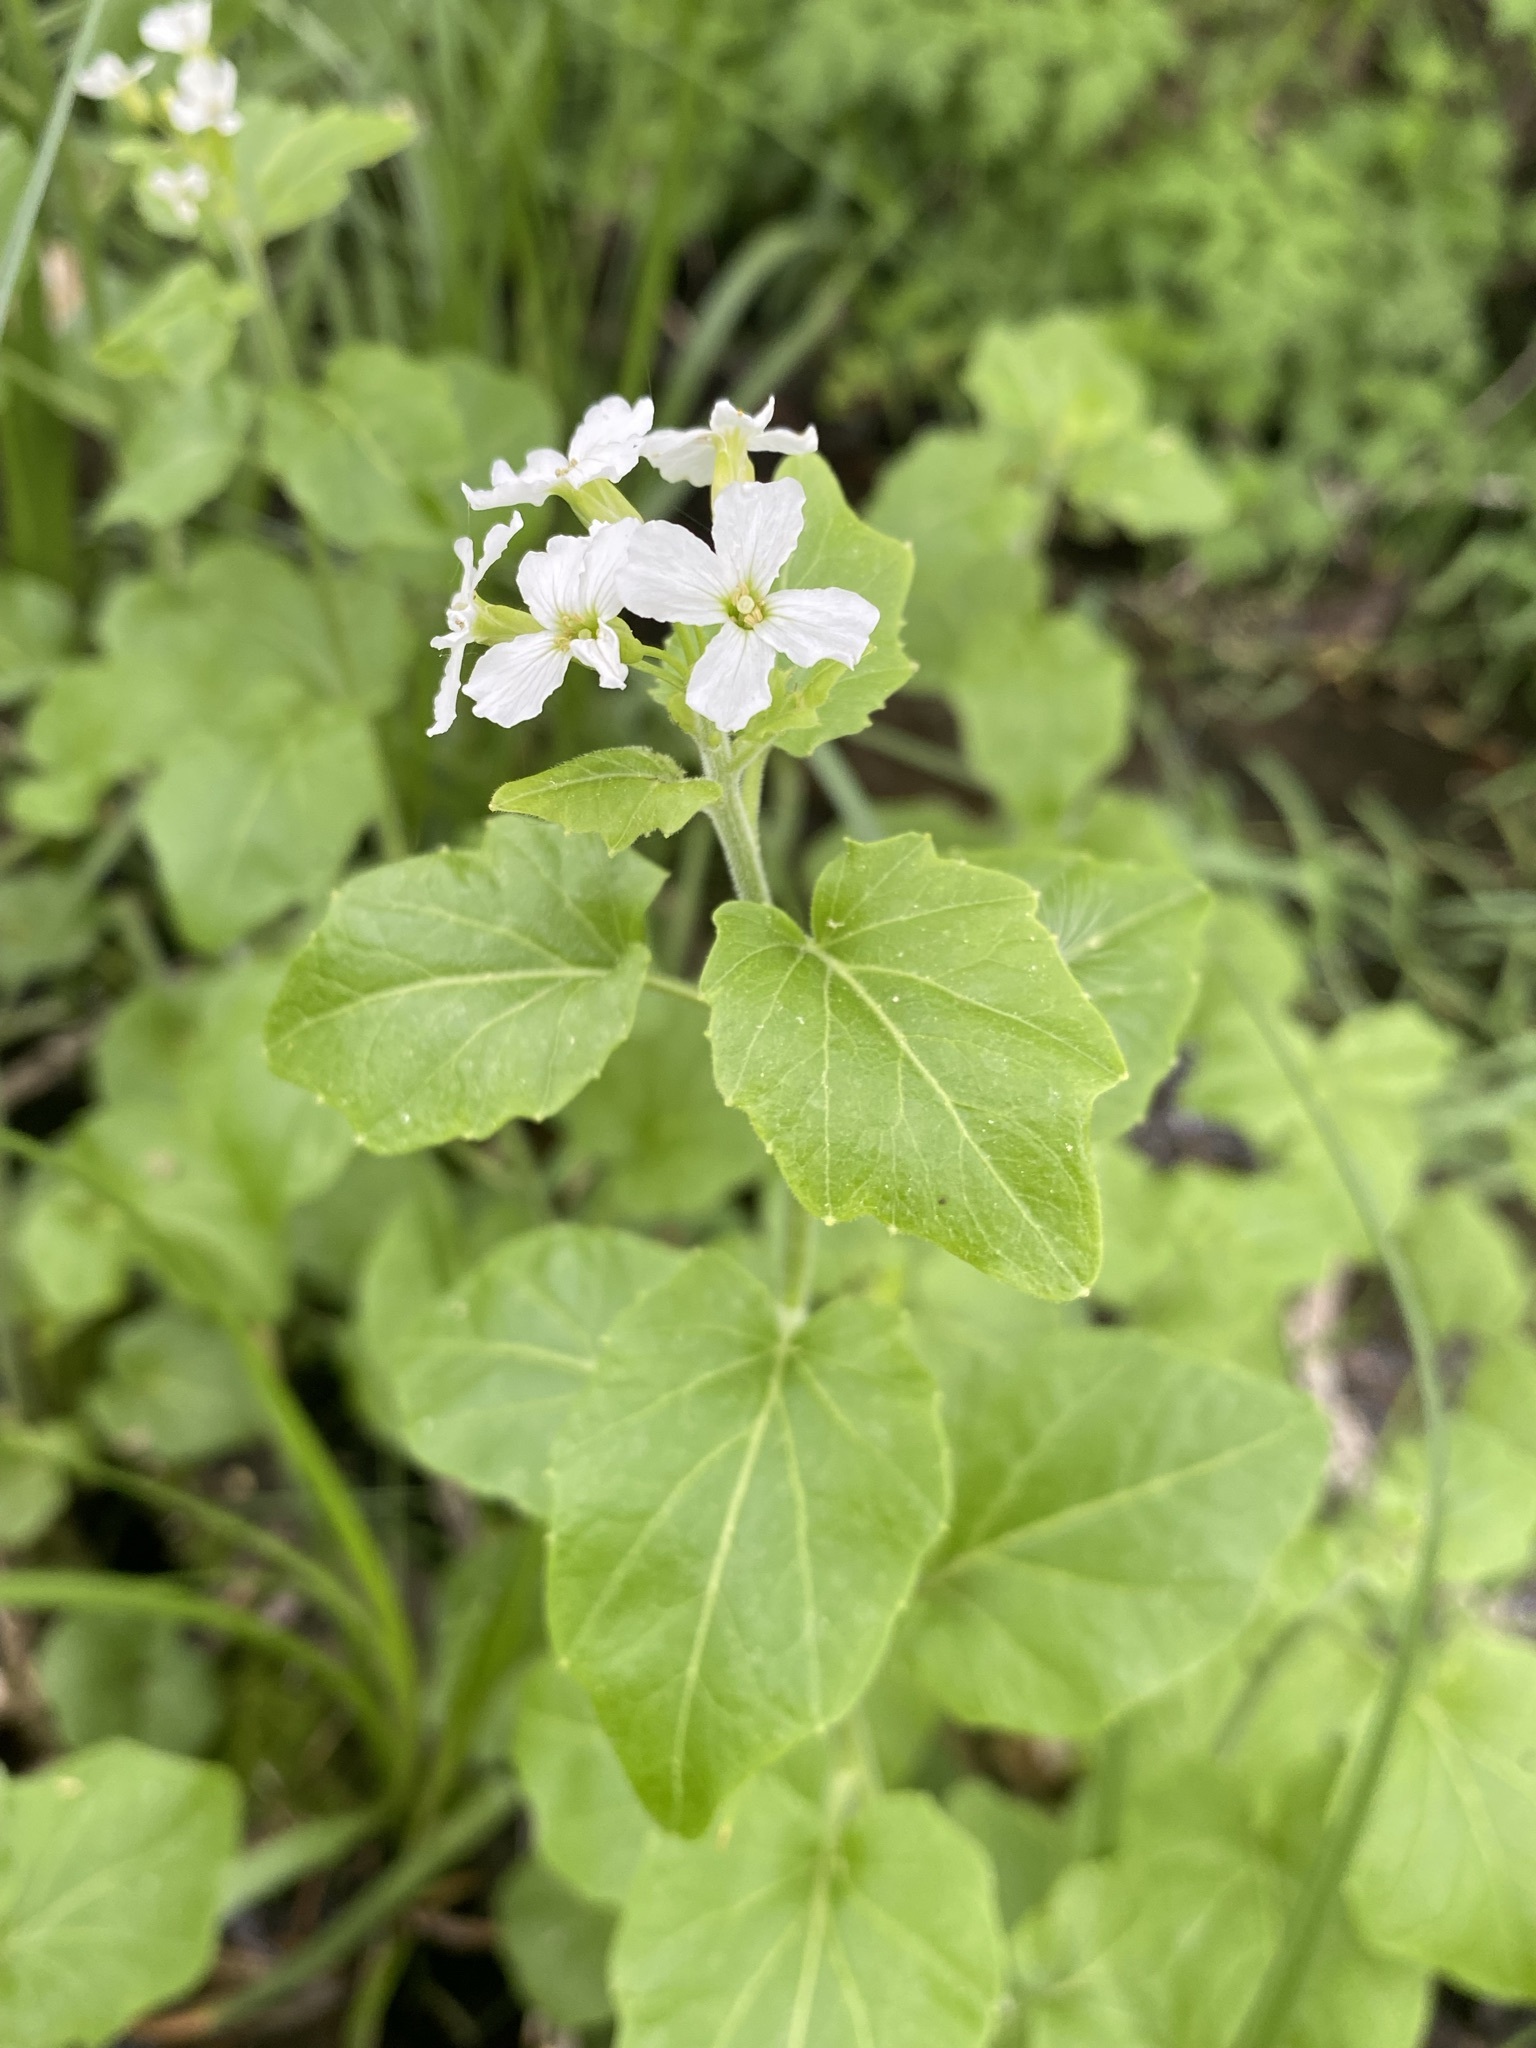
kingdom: Plantae
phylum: Tracheophyta
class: Magnoliopsida
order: Brassicales
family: Brassicaceae
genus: Cardamine
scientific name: Cardamine cordifolia
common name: Heart-leaf bittercress
